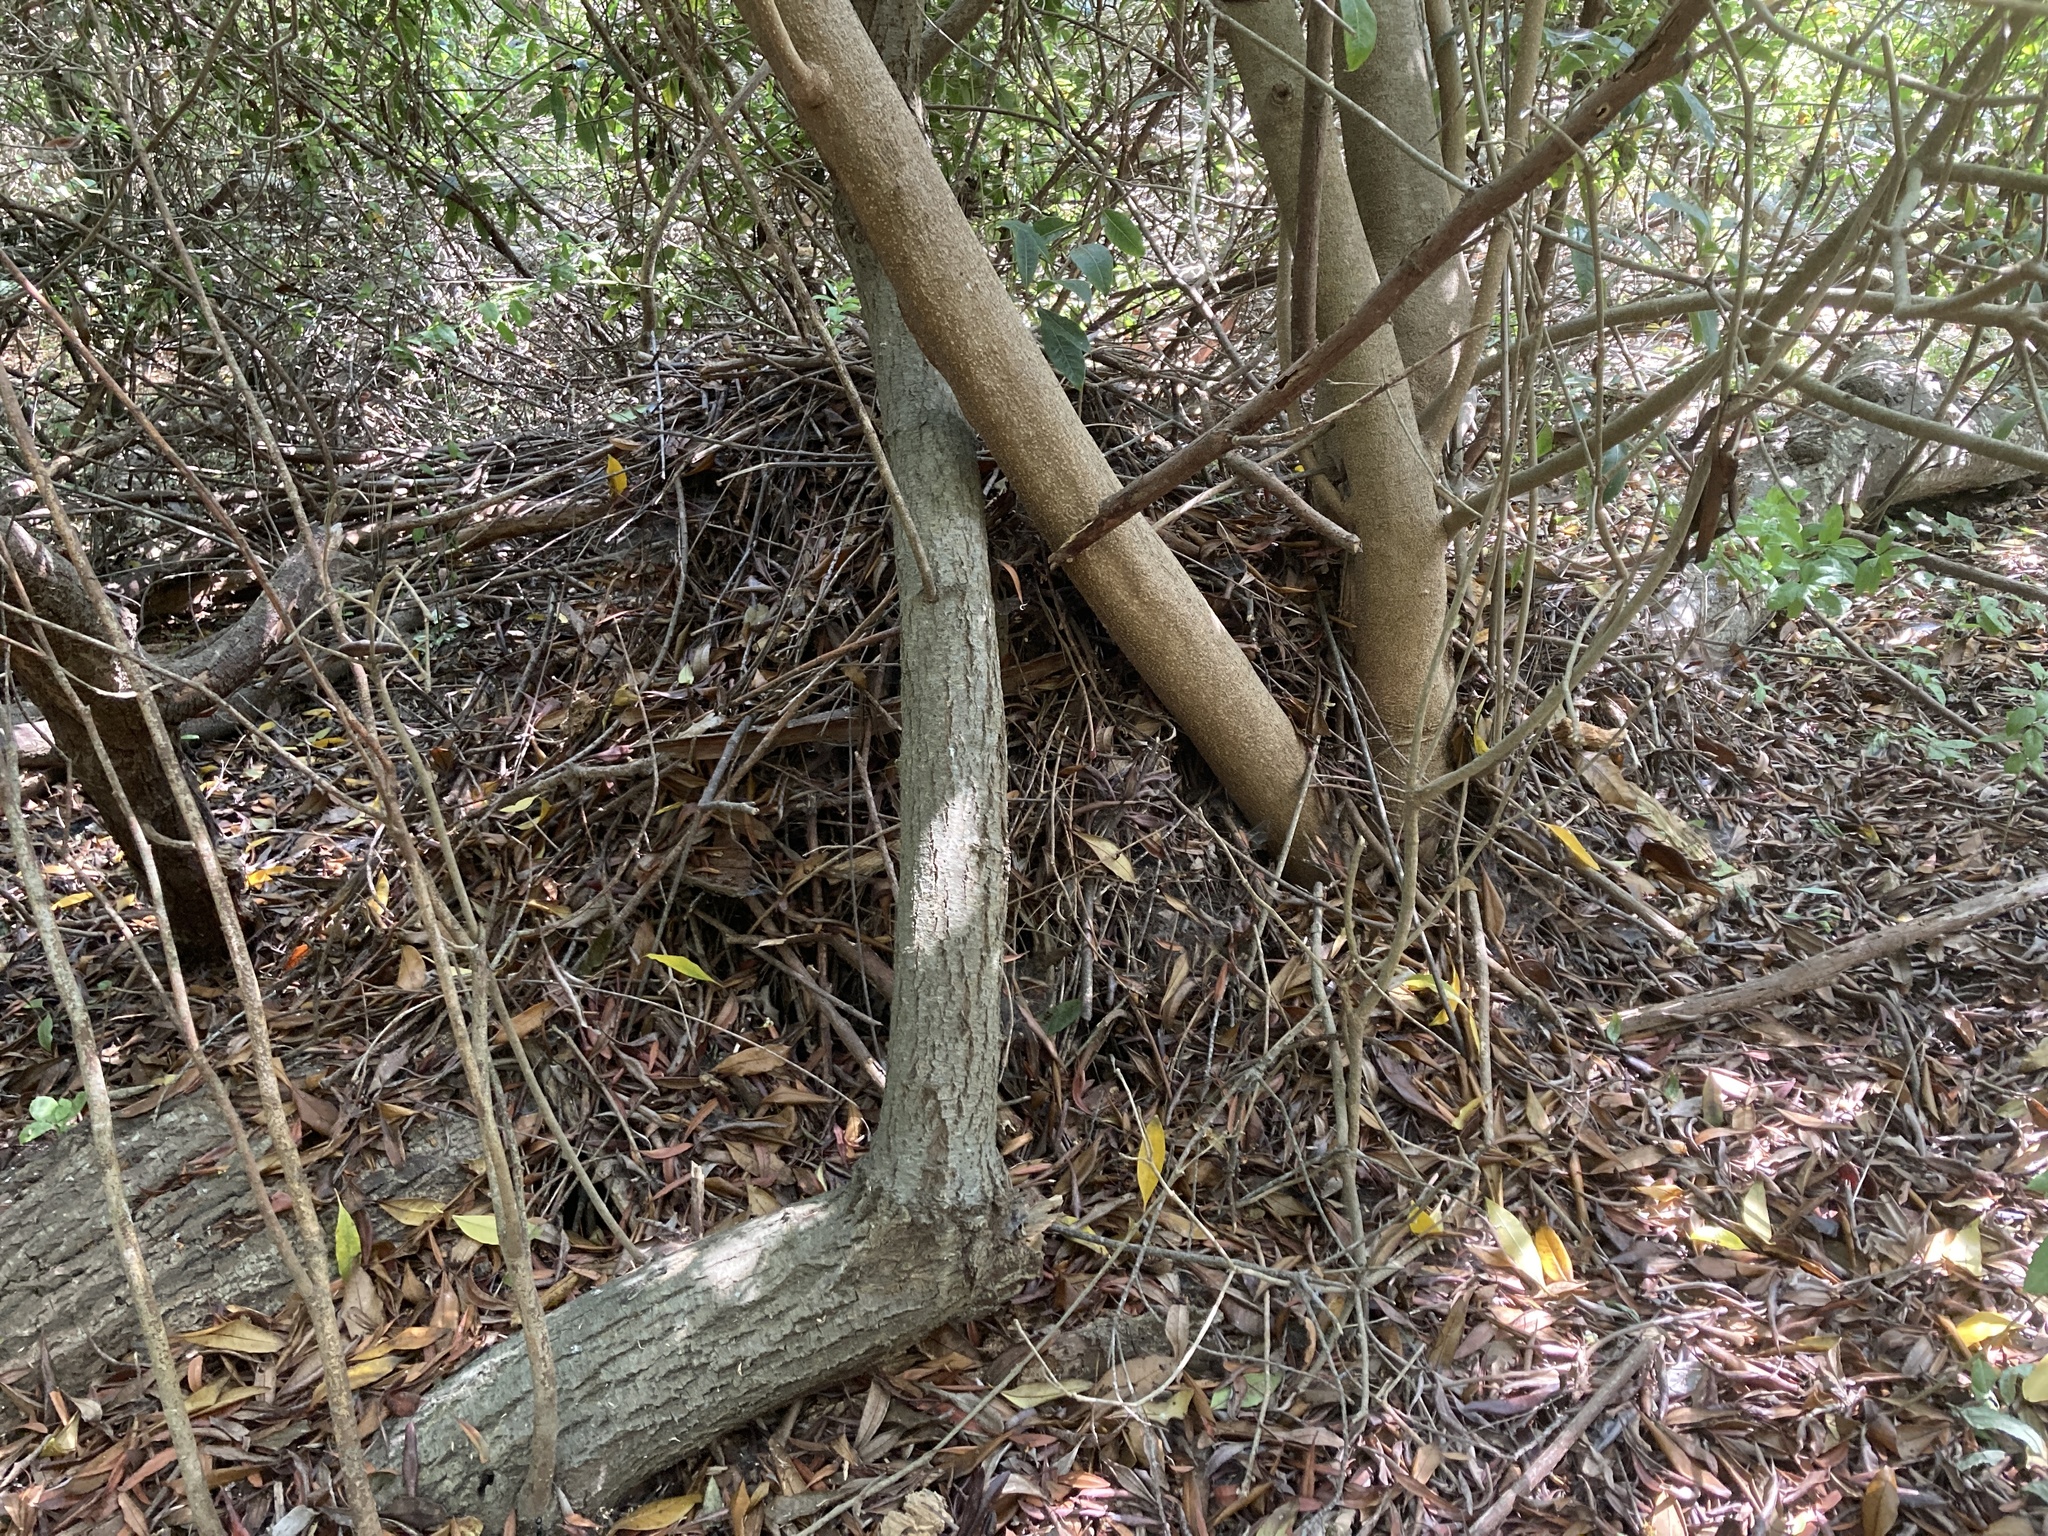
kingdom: Animalia
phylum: Chordata
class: Mammalia
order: Rodentia
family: Cricetidae
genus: Neotoma
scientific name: Neotoma fuscipes
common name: Dusky-footed woodrat
